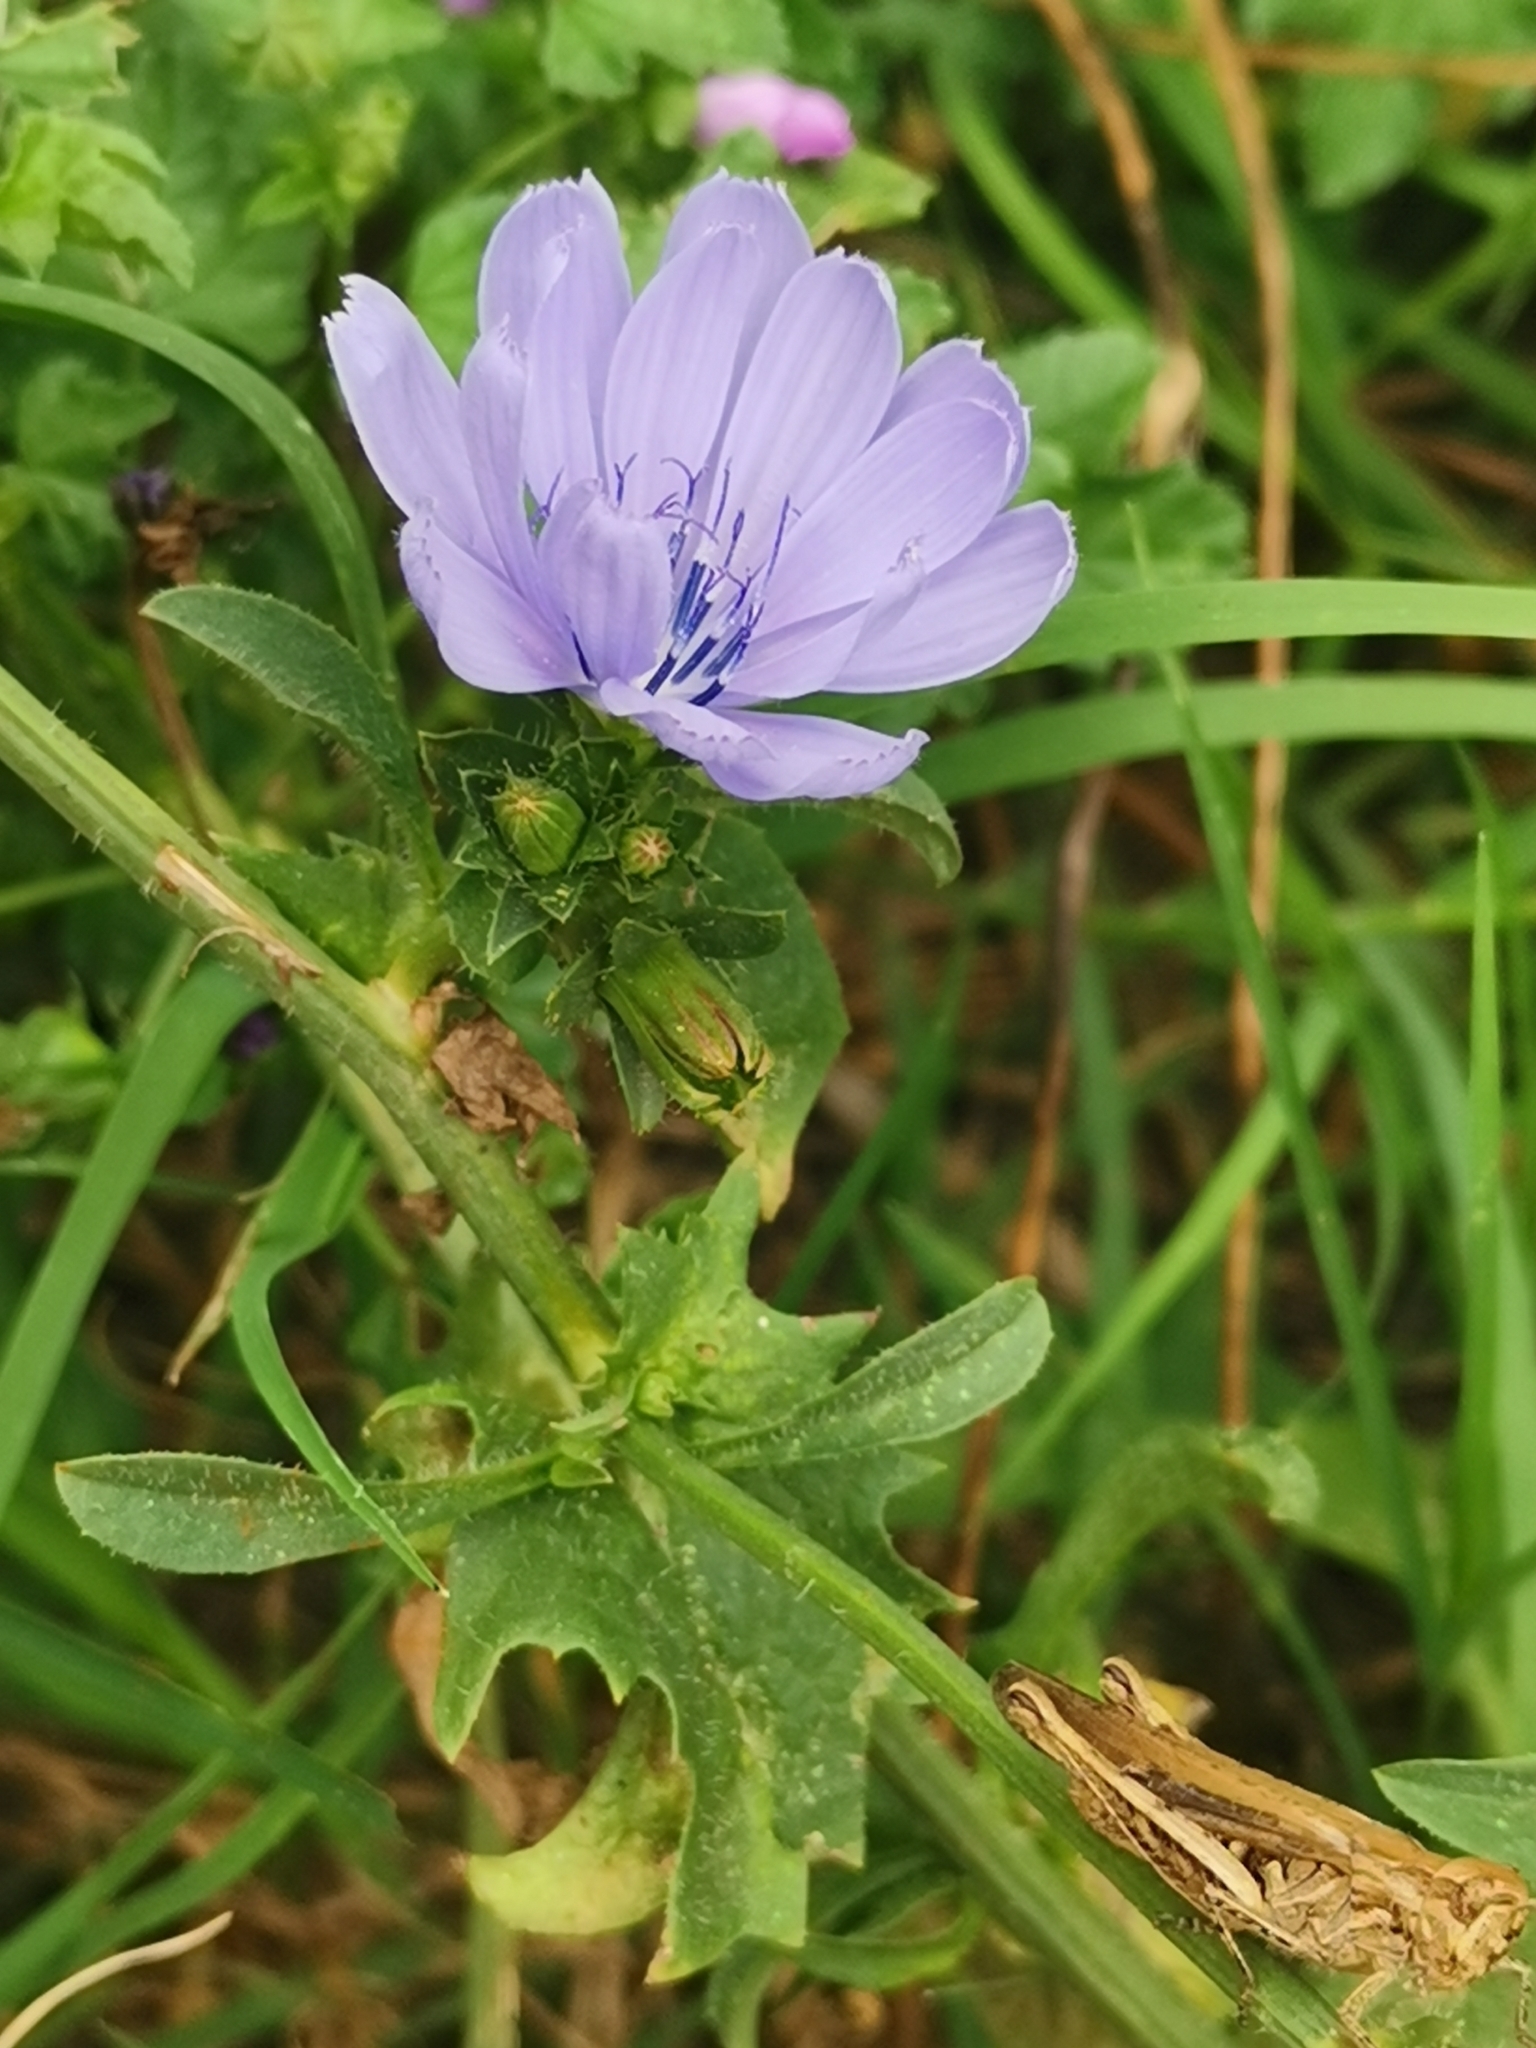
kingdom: Plantae
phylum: Tracheophyta
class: Magnoliopsida
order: Asterales
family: Asteraceae
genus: Cichorium
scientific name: Cichorium intybus
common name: Chicory
